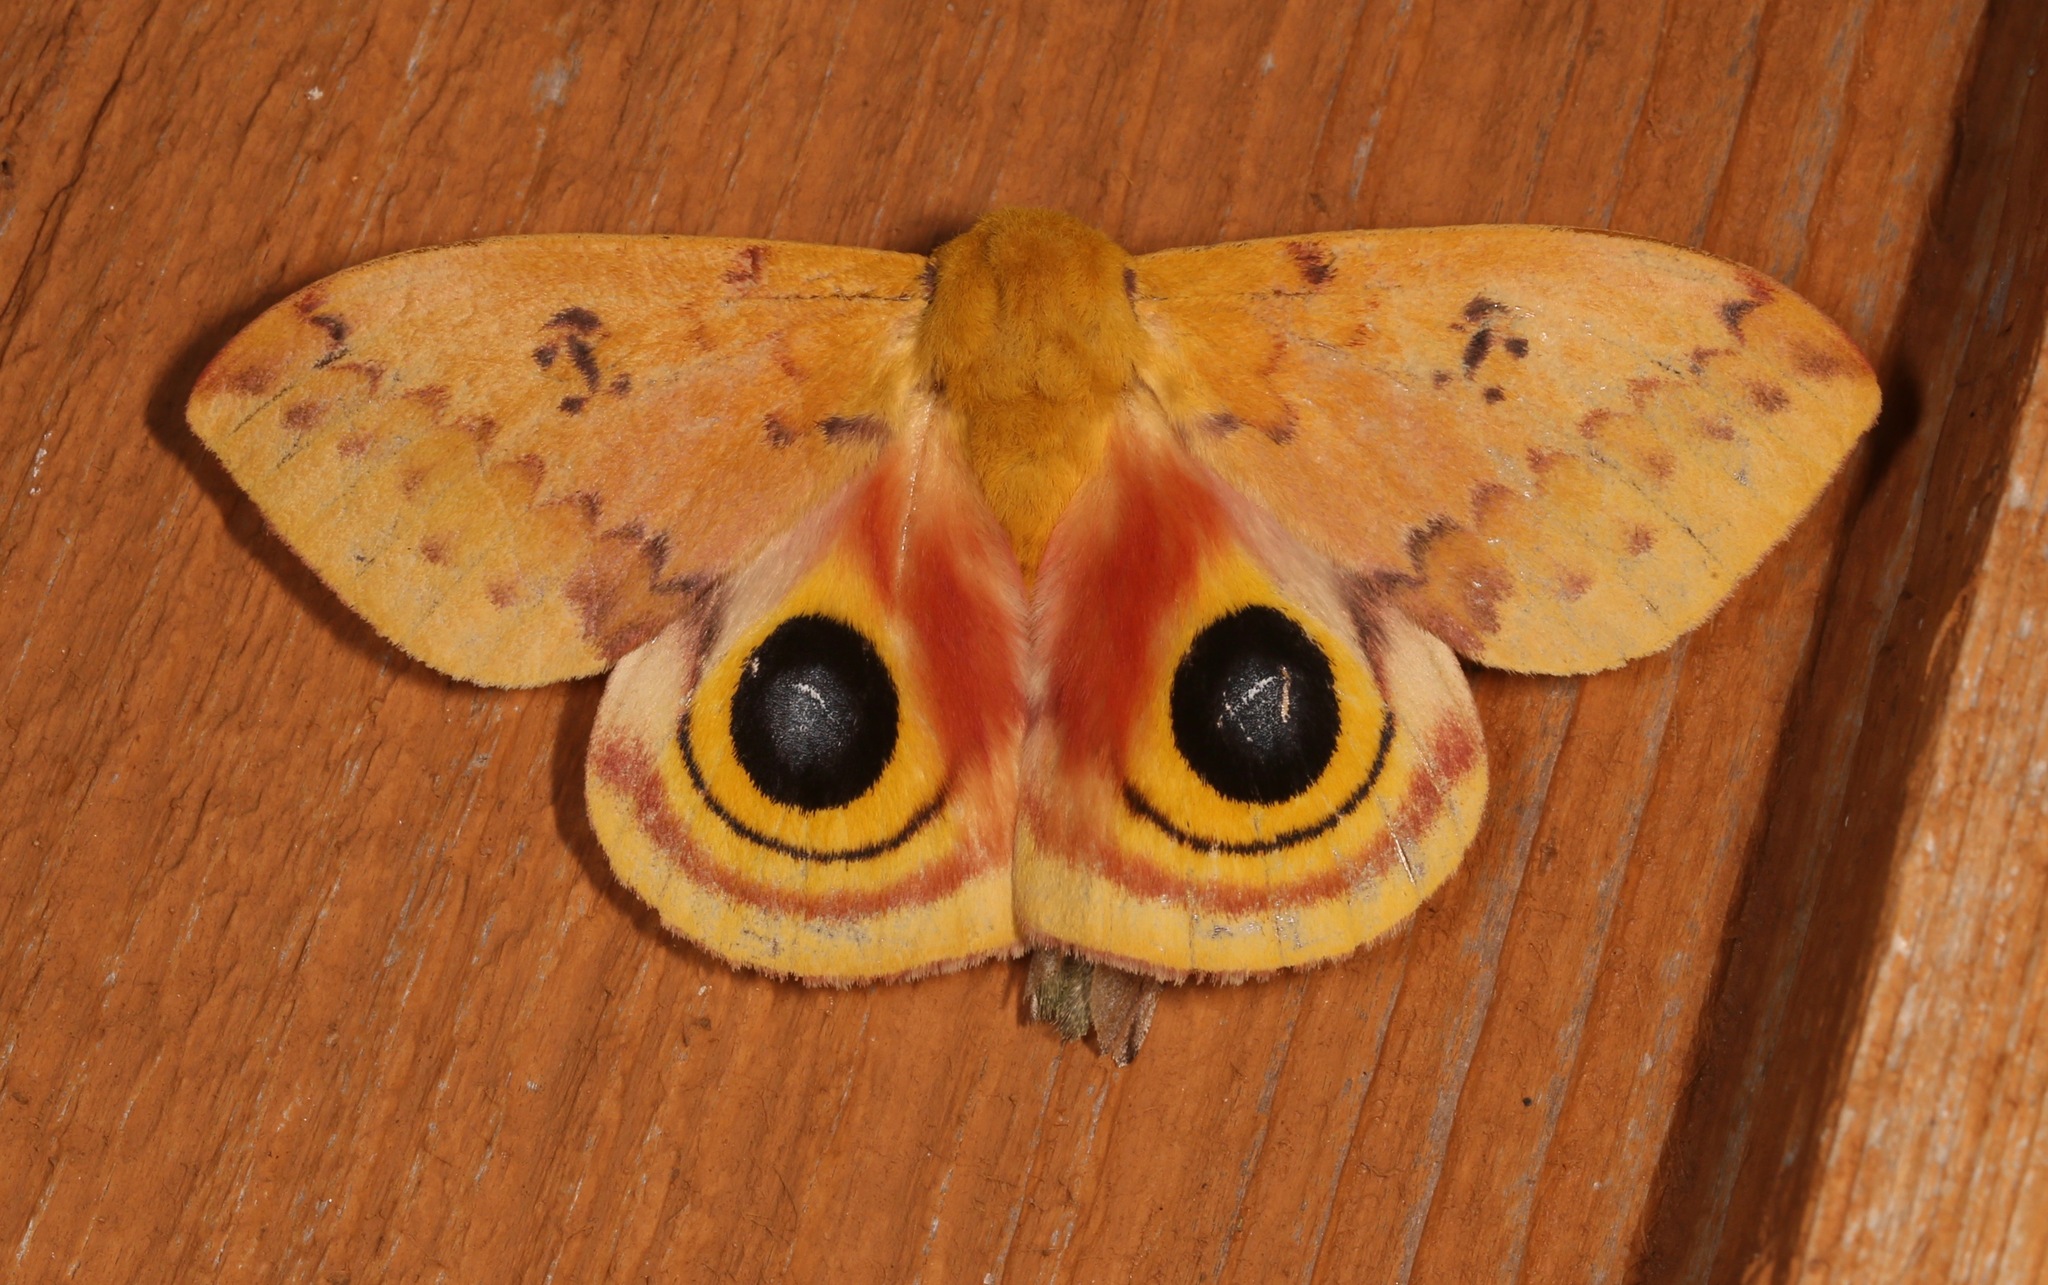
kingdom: Animalia
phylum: Arthropoda
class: Insecta
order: Lepidoptera
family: Saturniidae
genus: Automeris
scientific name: Automeris io
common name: Io moth
